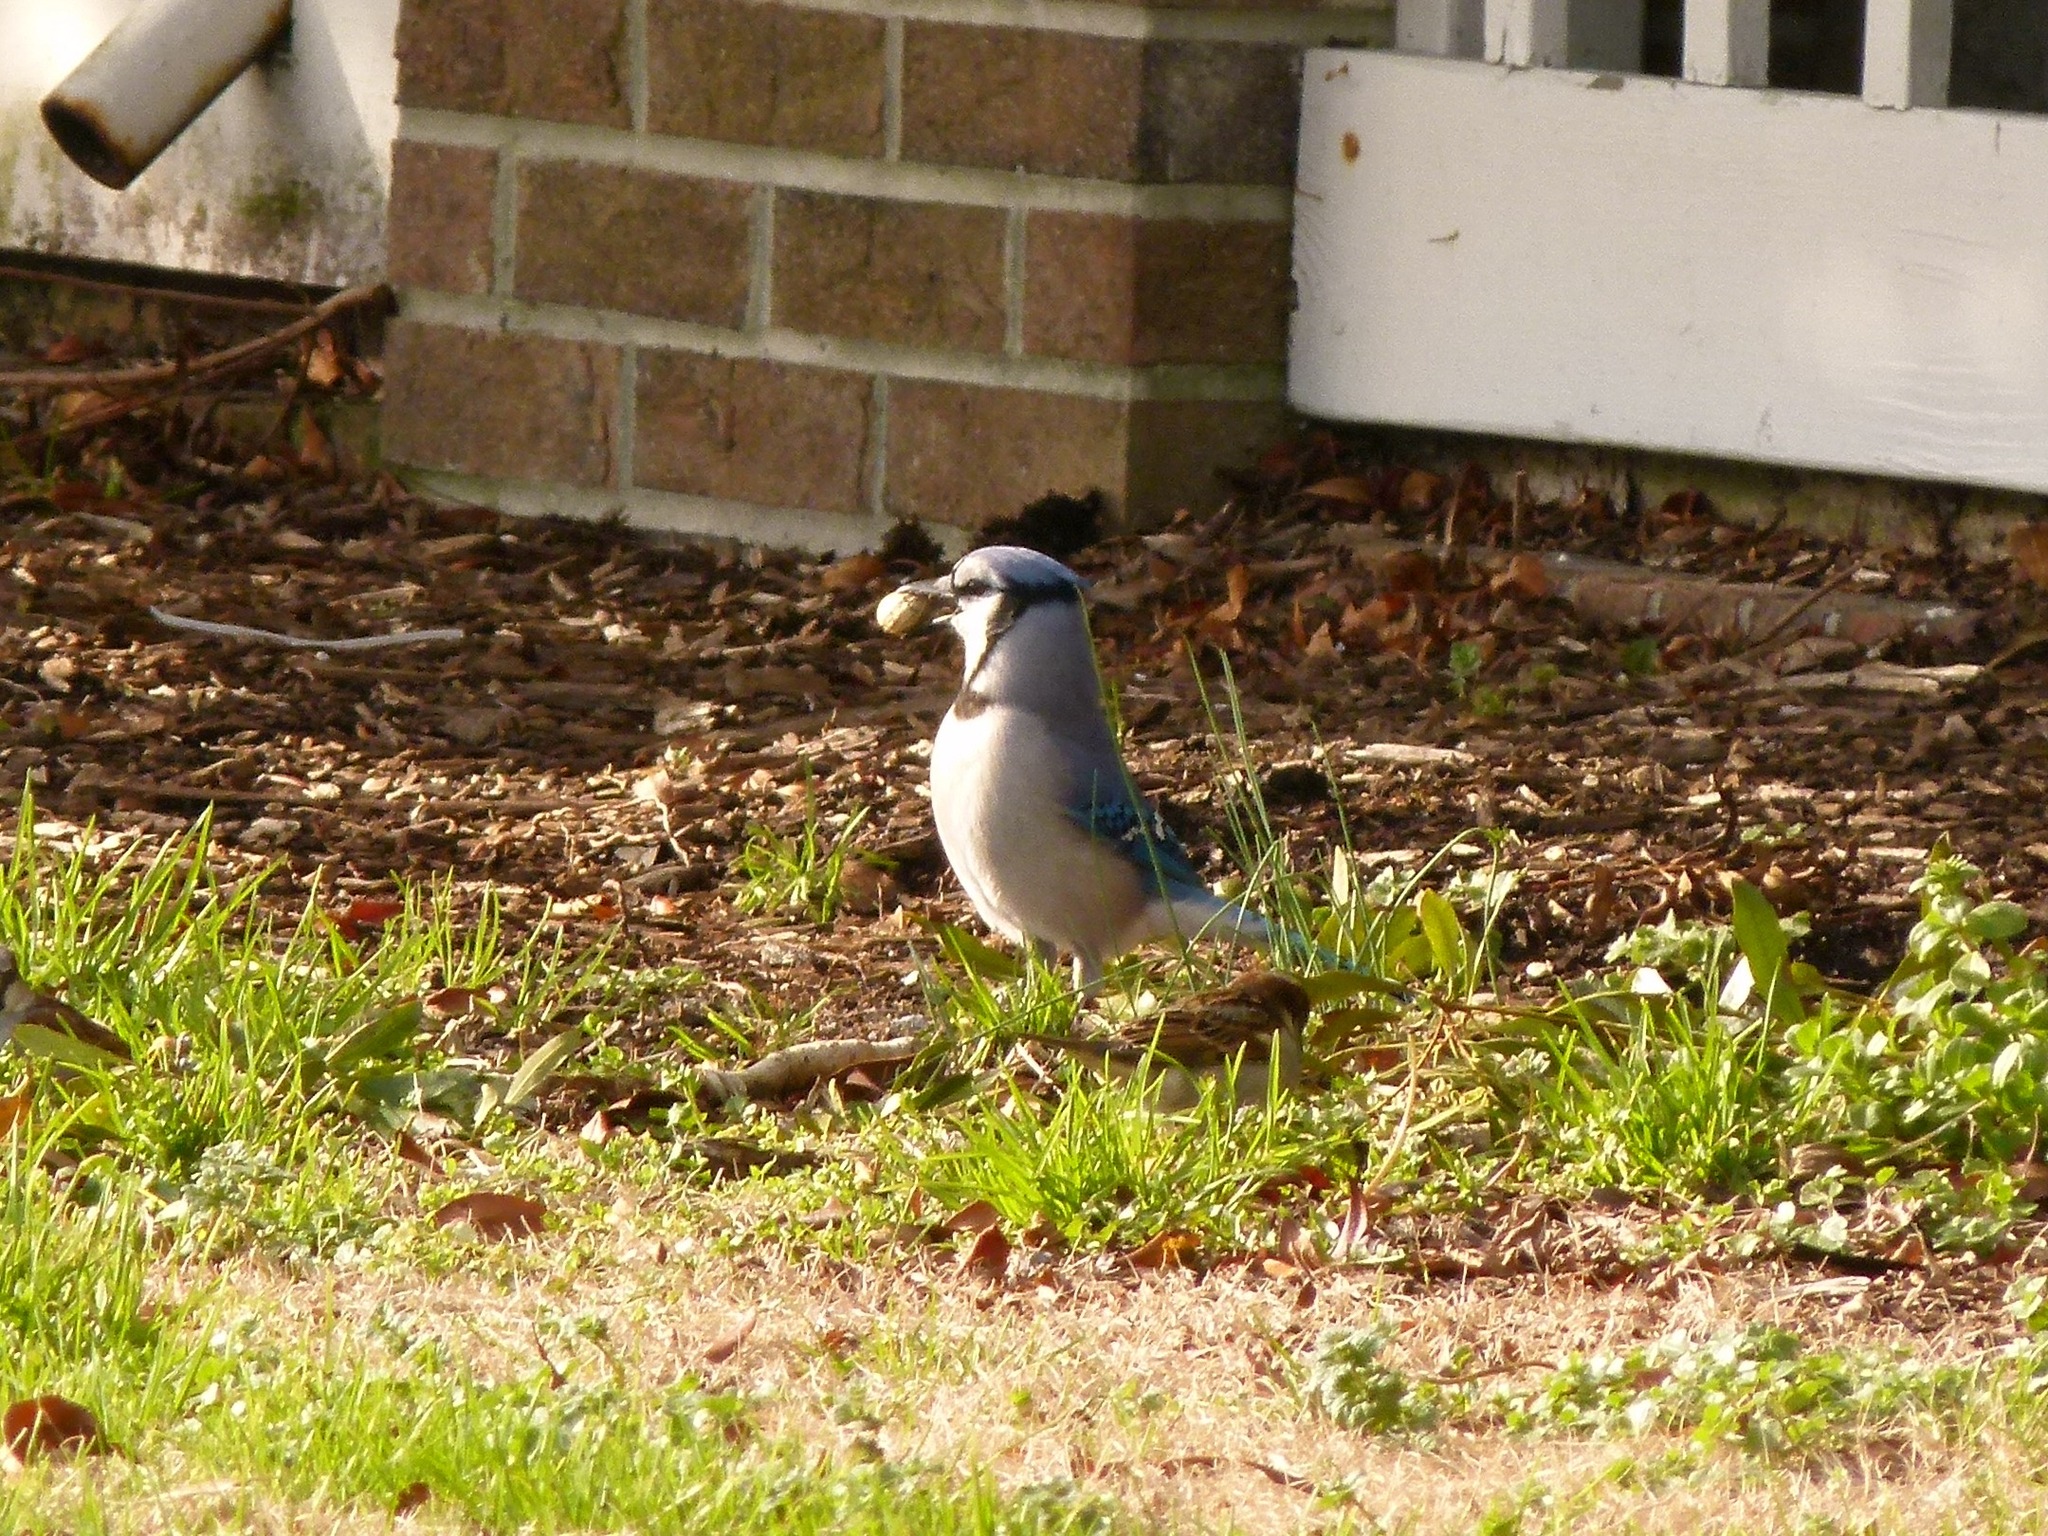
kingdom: Animalia
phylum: Chordata
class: Aves
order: Passeriformes
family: Corvidae
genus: Cyanocitta
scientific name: Cyanocitta cristata
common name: Blue jay
